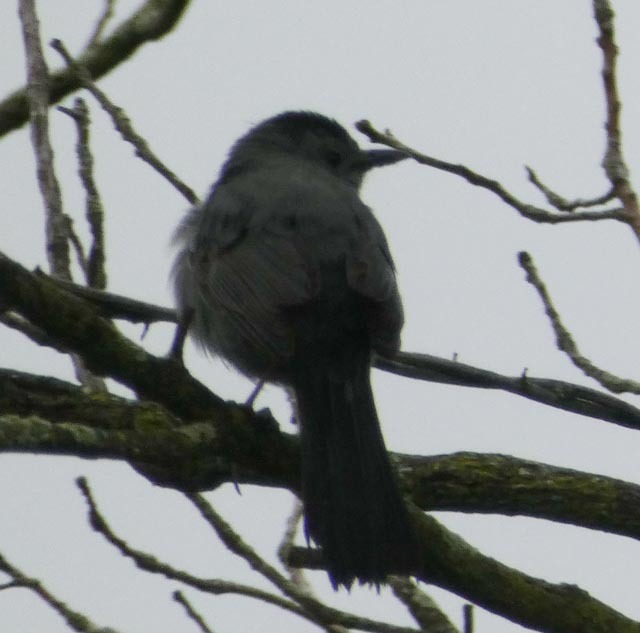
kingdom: Animalia
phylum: Chordata
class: Aves
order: Passeriformes
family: Mimidae
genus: Dumetella
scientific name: Dumetella carolinensis
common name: Gray catbird
